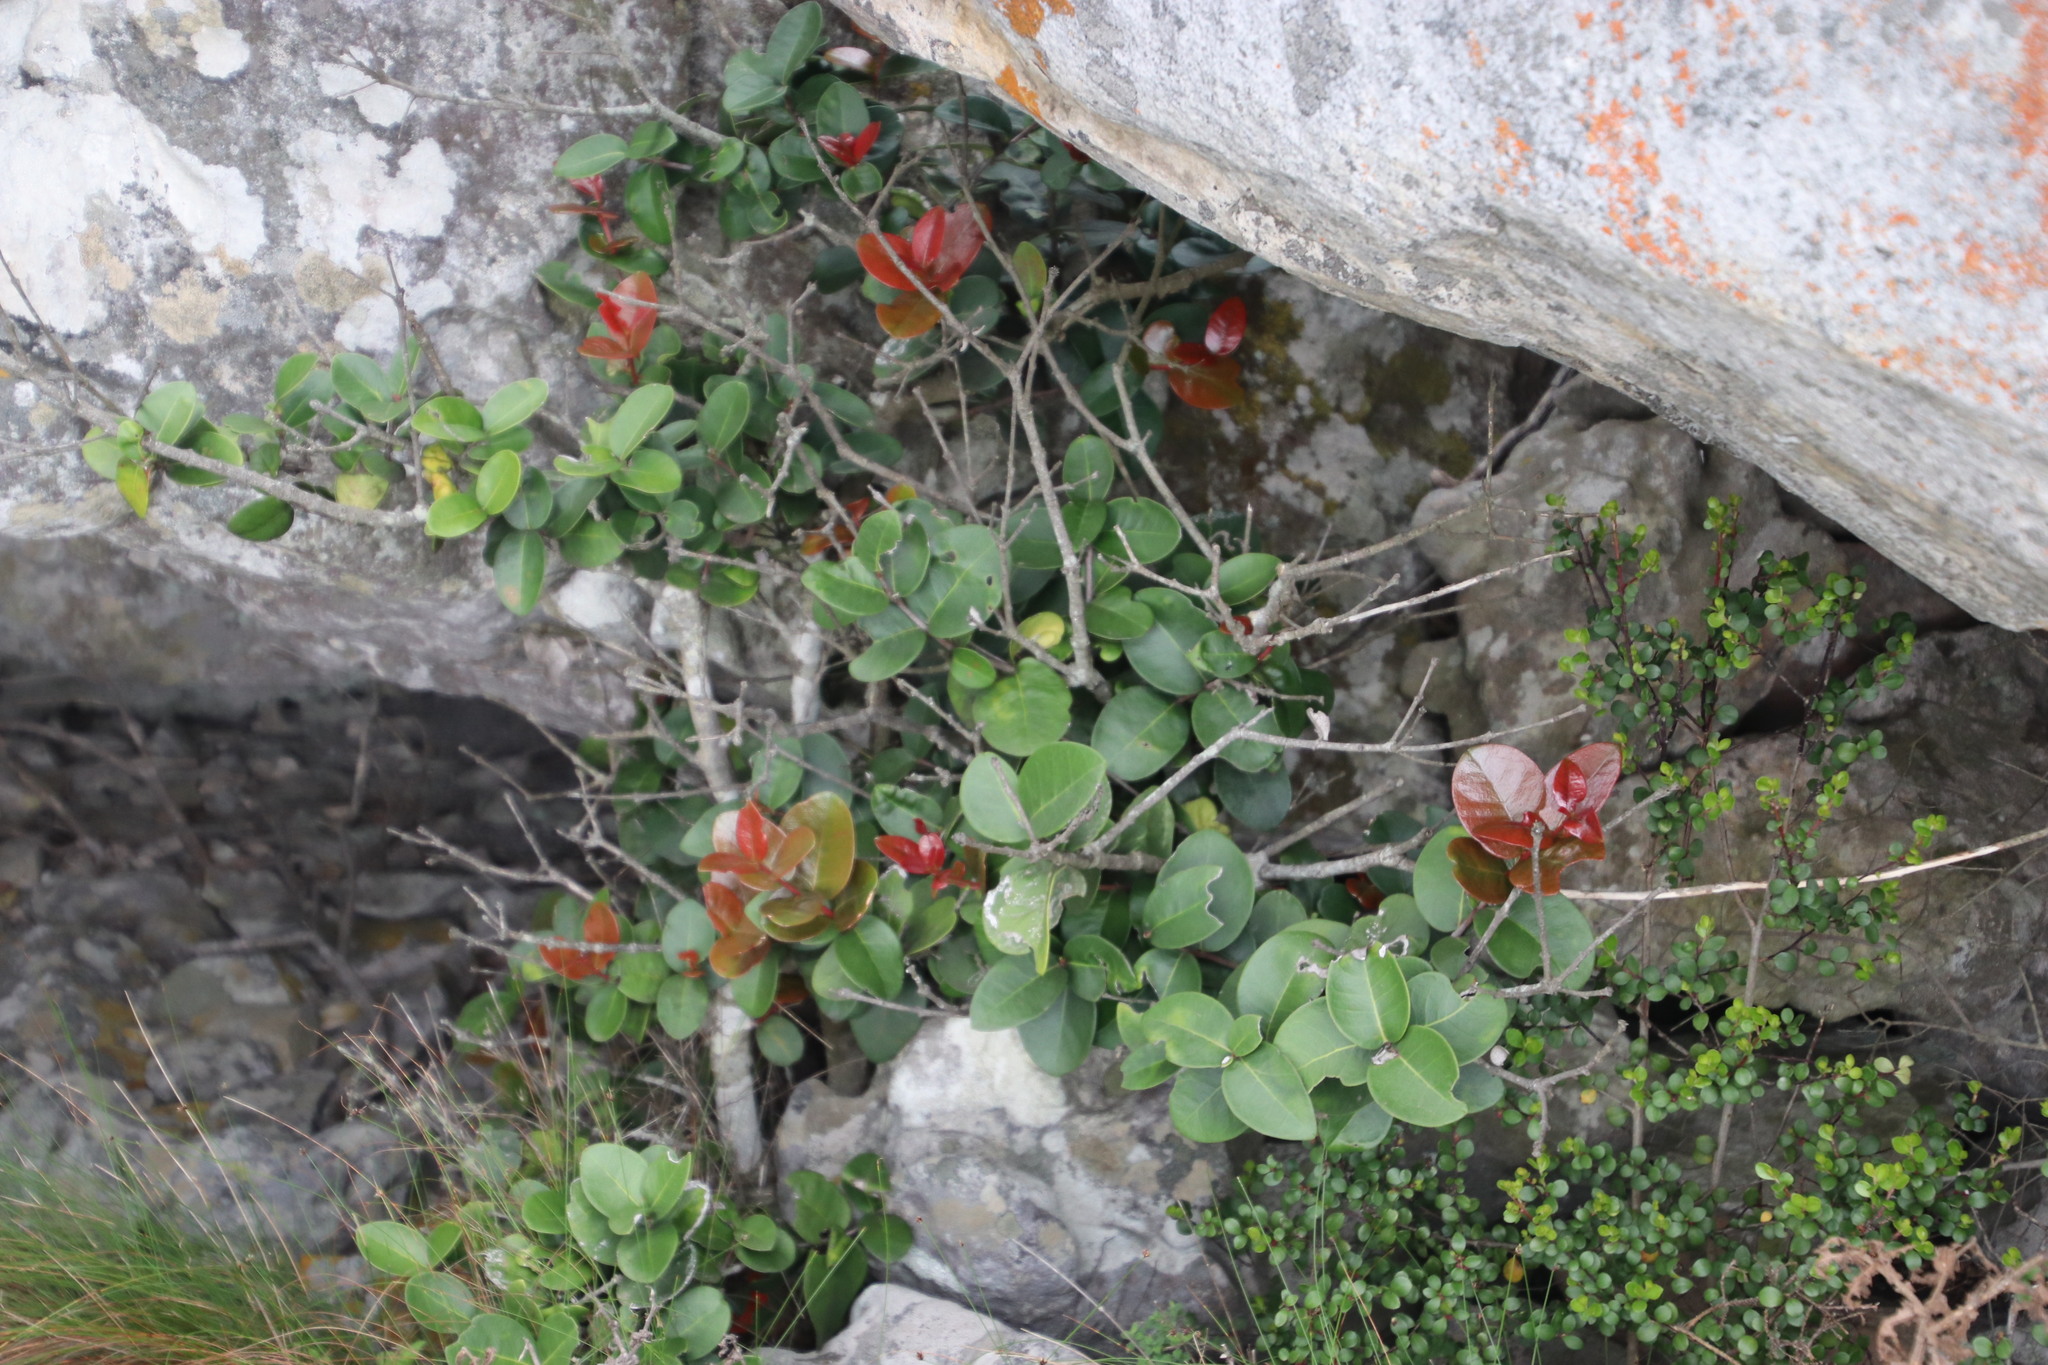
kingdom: Plantae
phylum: Tracheophyta
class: Magnoliopsida
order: Celastrales
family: Celastraceae
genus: Maurocenia
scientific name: Maurocenia frangula
